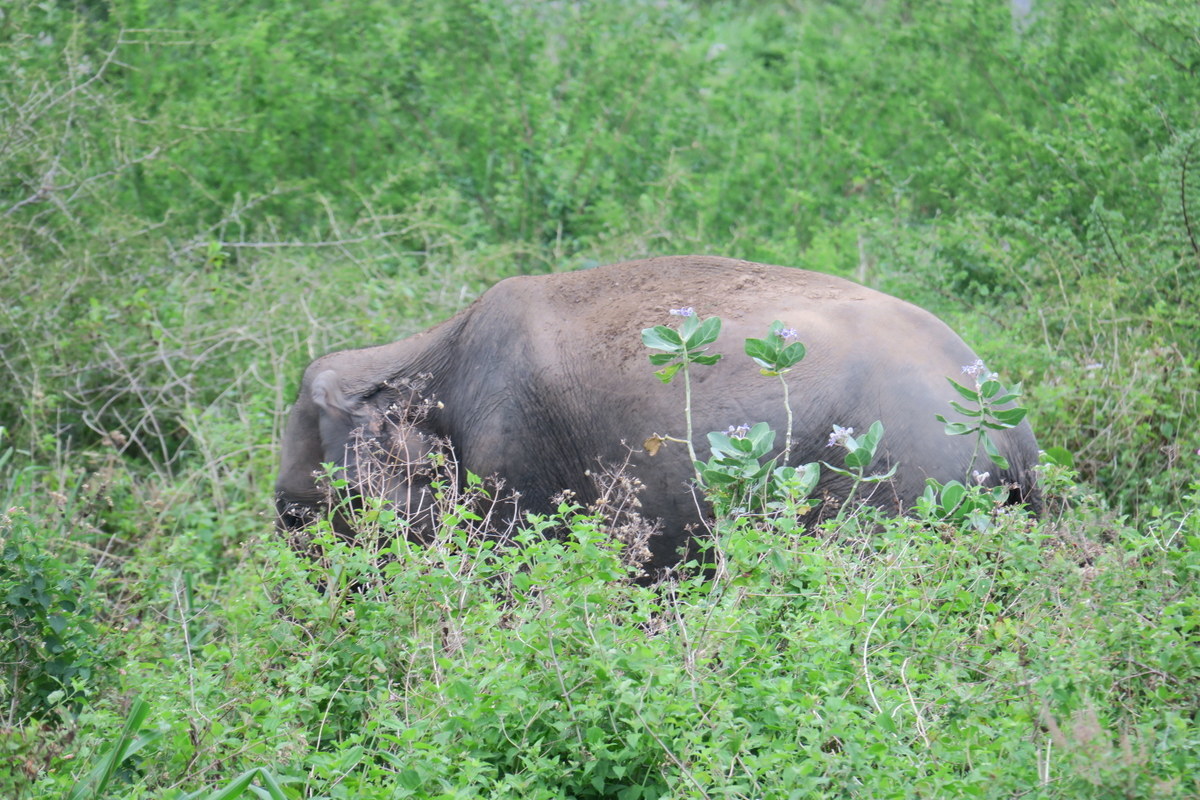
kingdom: Animalia
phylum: Chordata
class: Mammalia
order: Proboscidea
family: Elephantidae
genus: Elephas
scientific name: Elephas maximus
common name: Asian elephant
